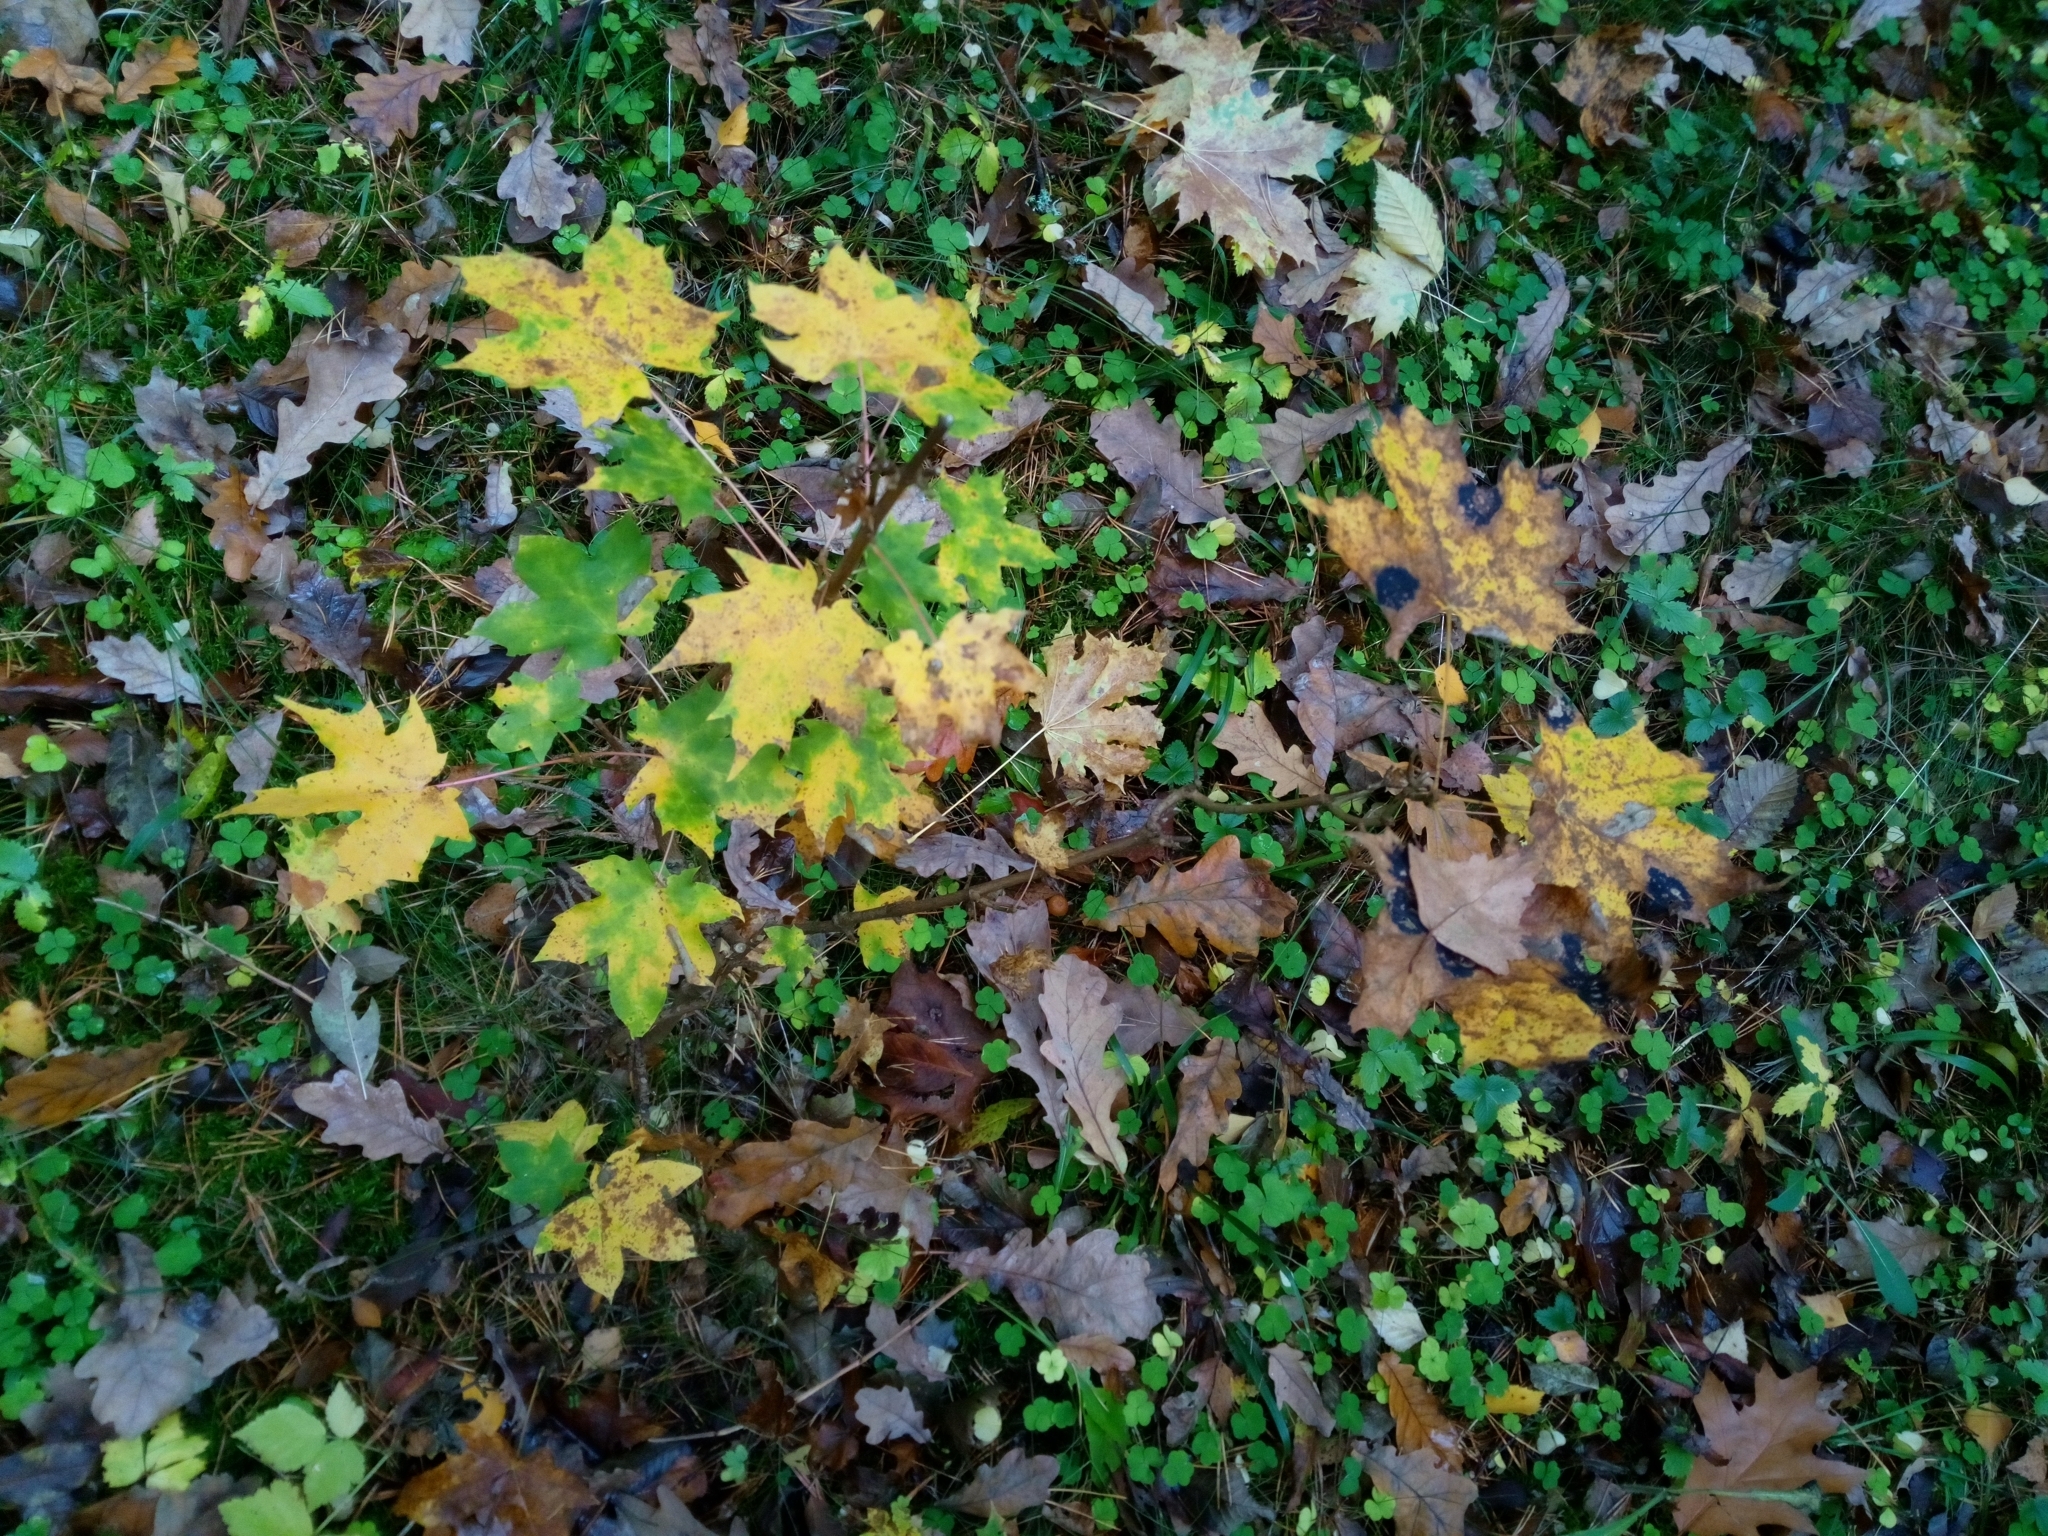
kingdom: Plantae
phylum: Tracheophyta
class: Magnoliopsida
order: Sapindales
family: Sapindaceae
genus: Acer
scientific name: Acer platanoides
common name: Norway maple
